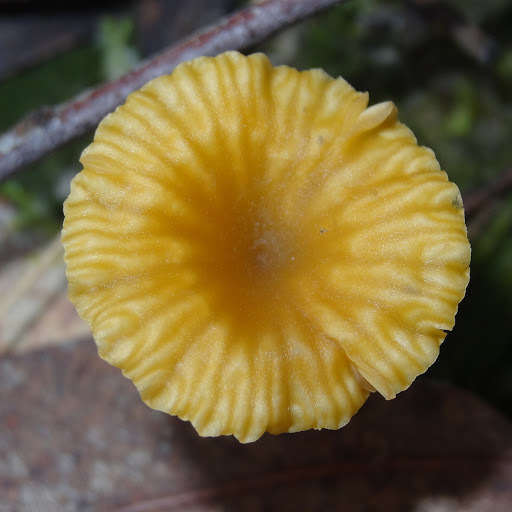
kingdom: Fungi
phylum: Basidiomycota
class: Agaricomycetes
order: Agaricales
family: Hygrophoraceae
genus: Lichenomphalia
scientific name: Lichenomphalia chromacea
